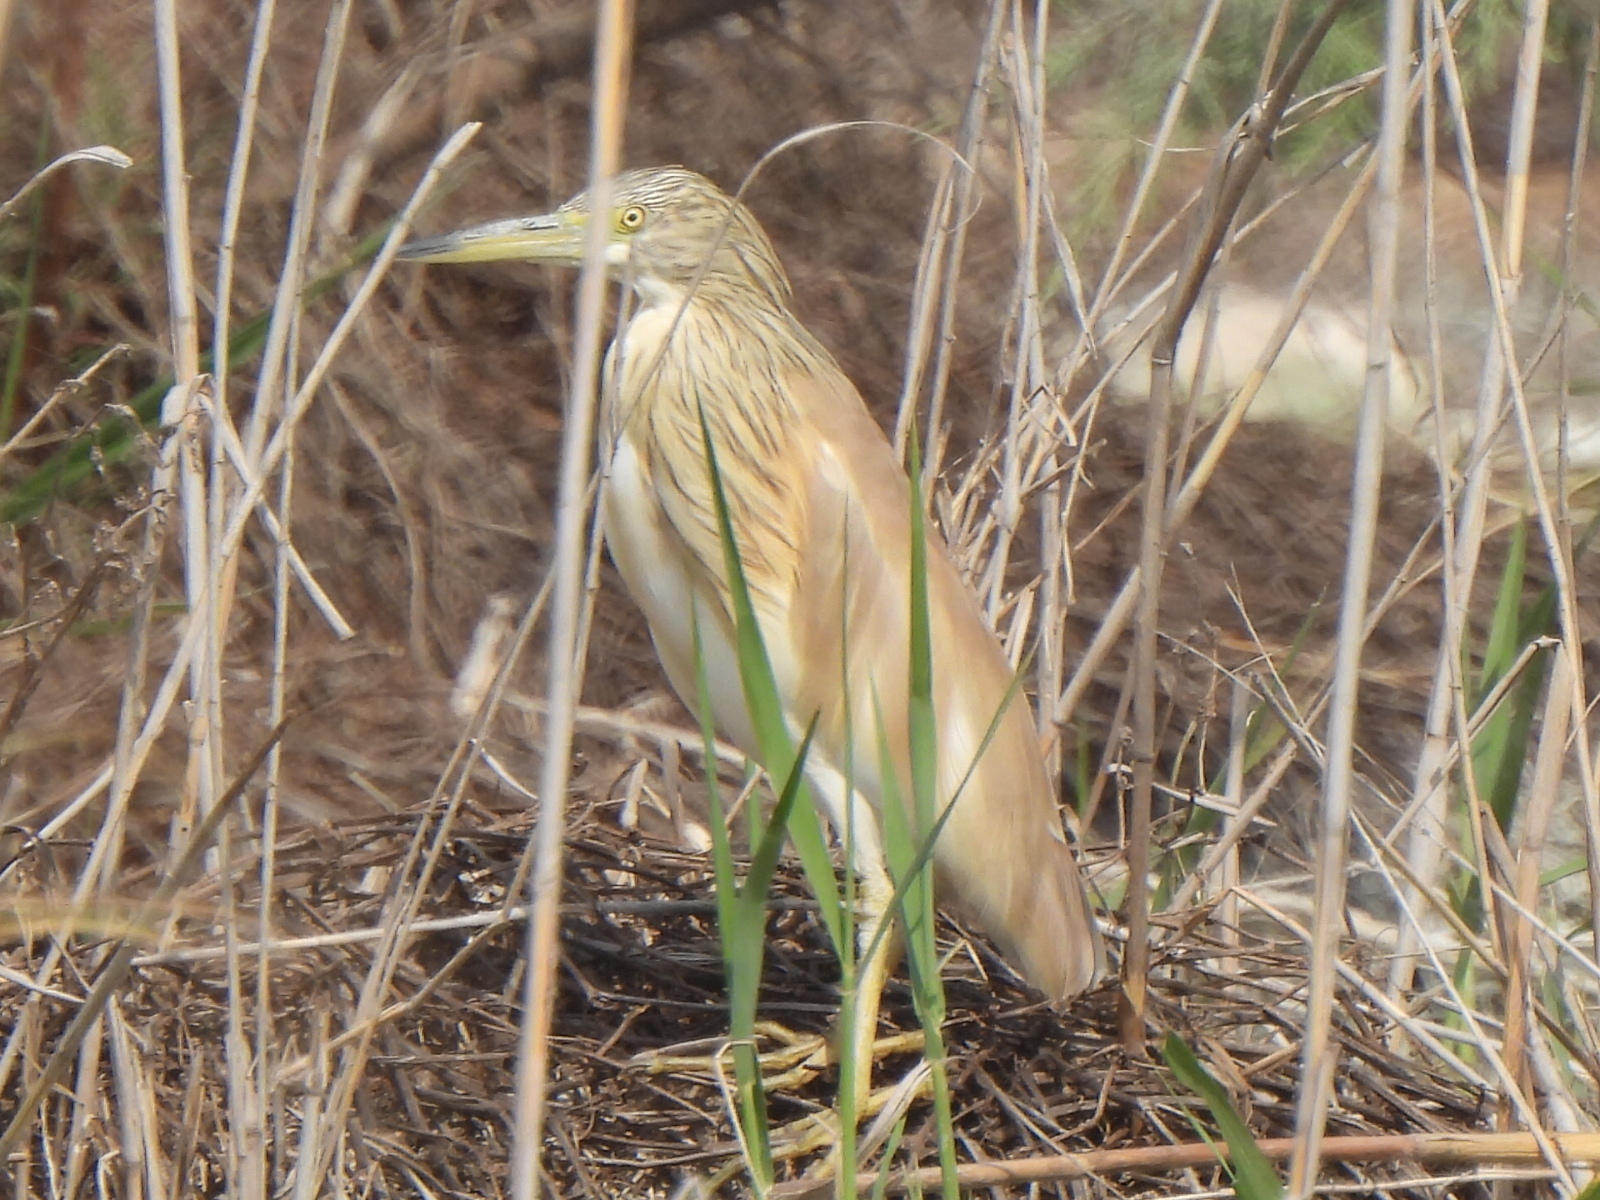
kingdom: Animalia
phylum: Chordata
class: Aves
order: Pelecaniformes
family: Ardeidae
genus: Ardeola
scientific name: Ardeola ralloides
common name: Squacco heron
